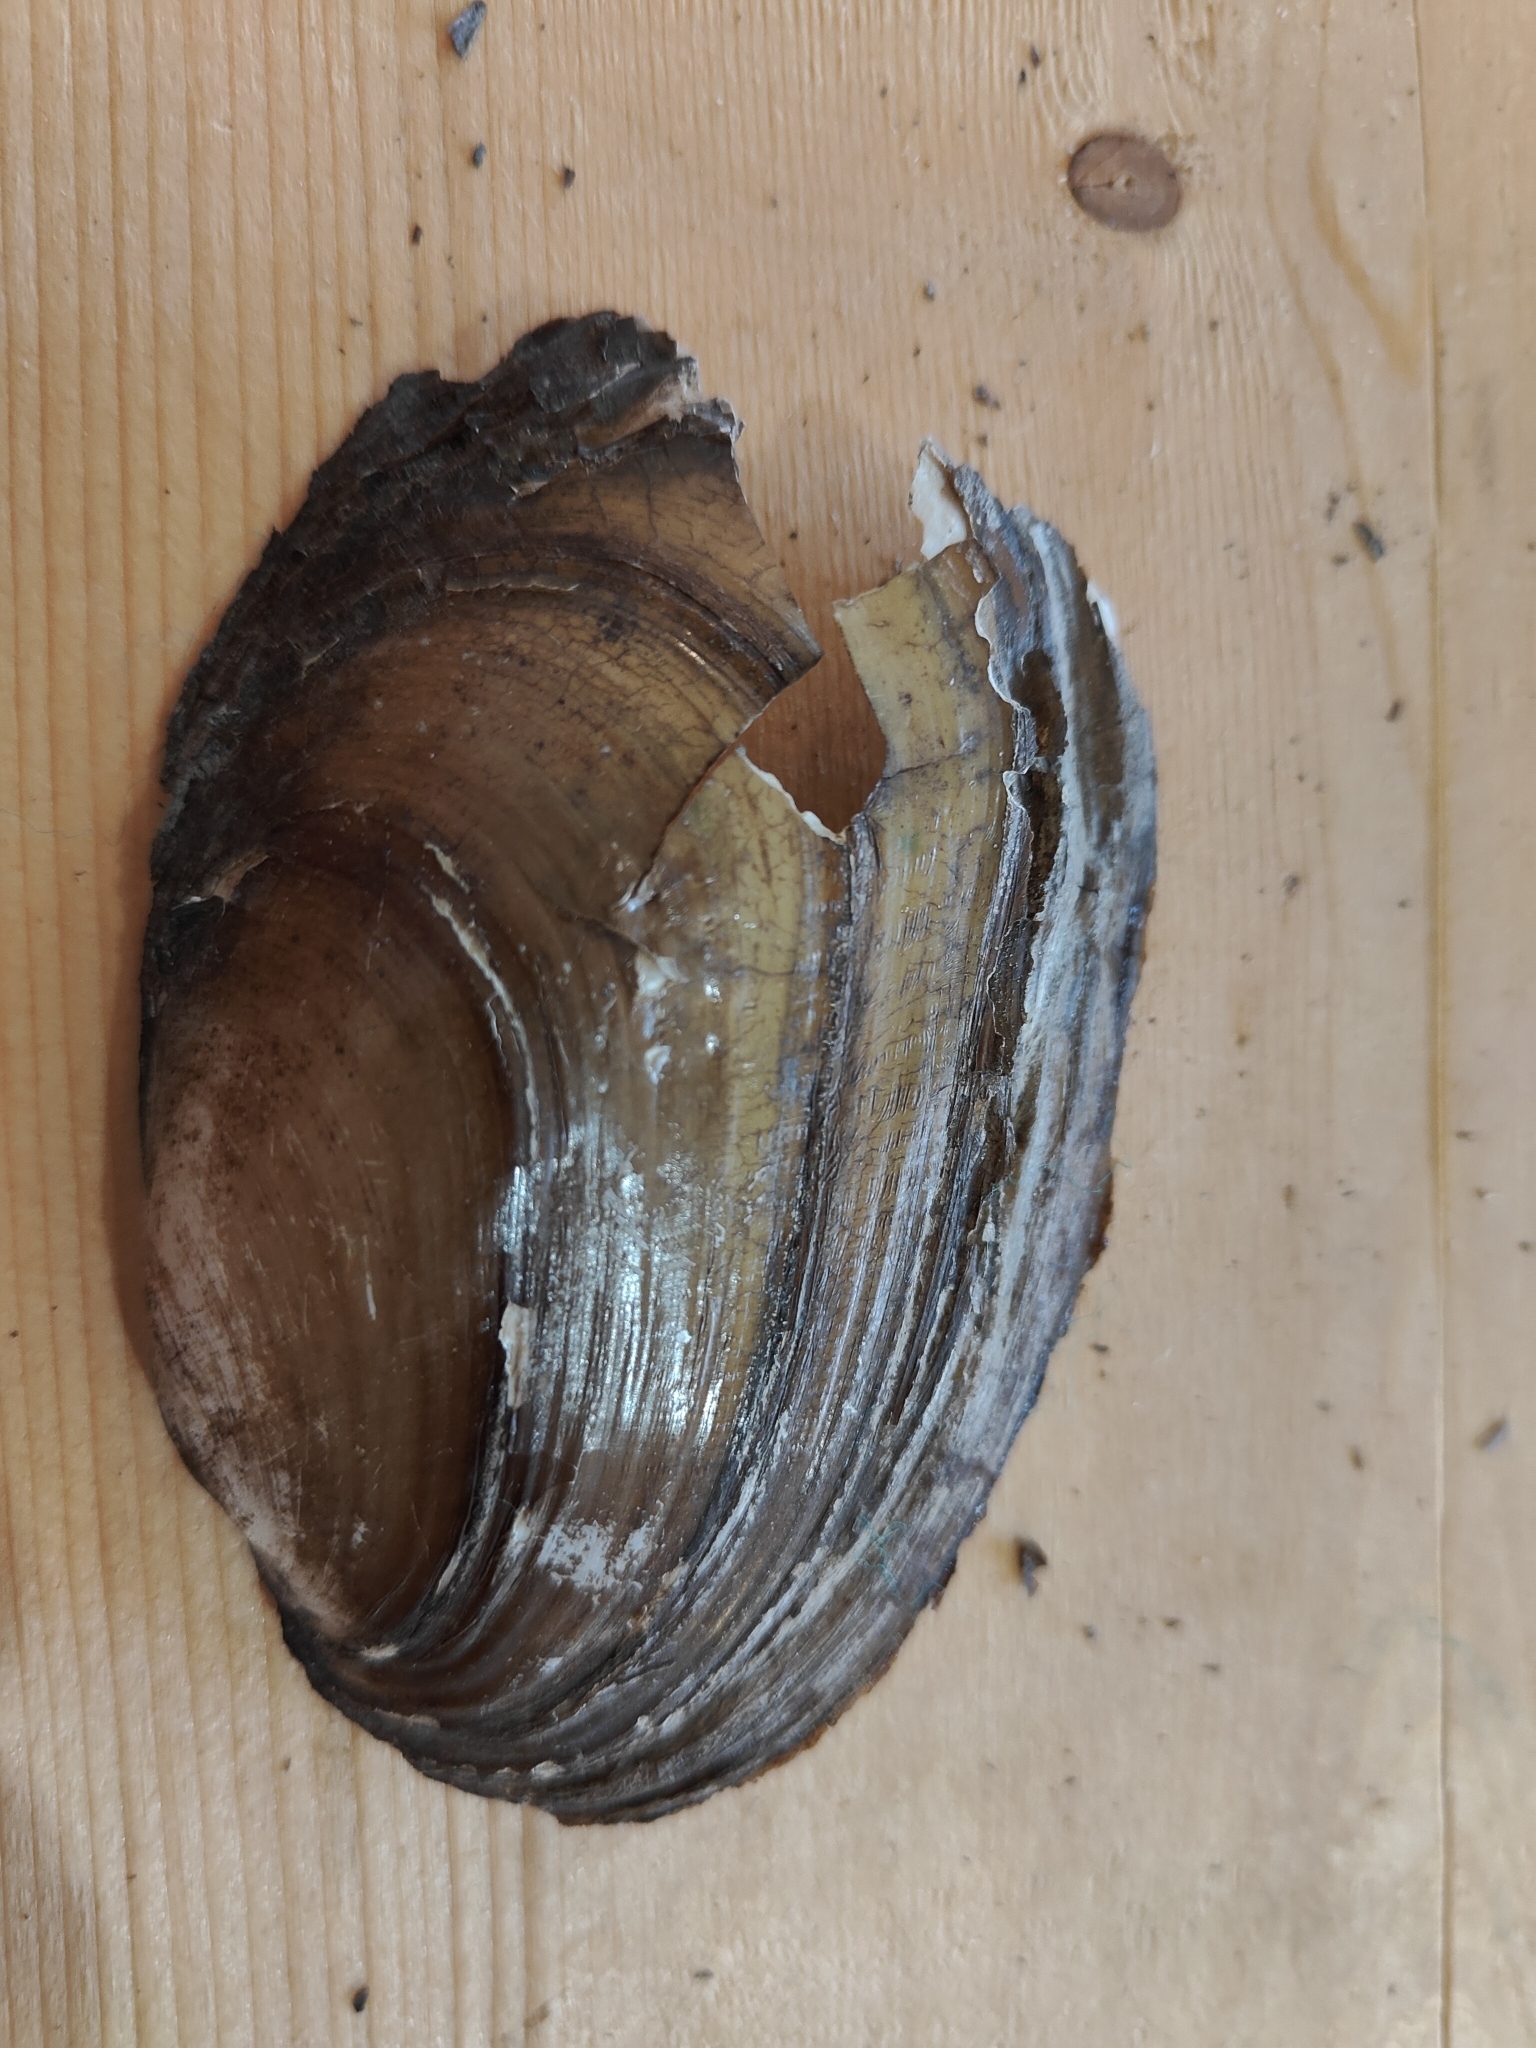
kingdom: Animalia
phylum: Mollusca
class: Bivalvia
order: Unionida
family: Unionidae
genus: Potamilus
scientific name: Potamilus fragilis
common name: Fragile papershell
